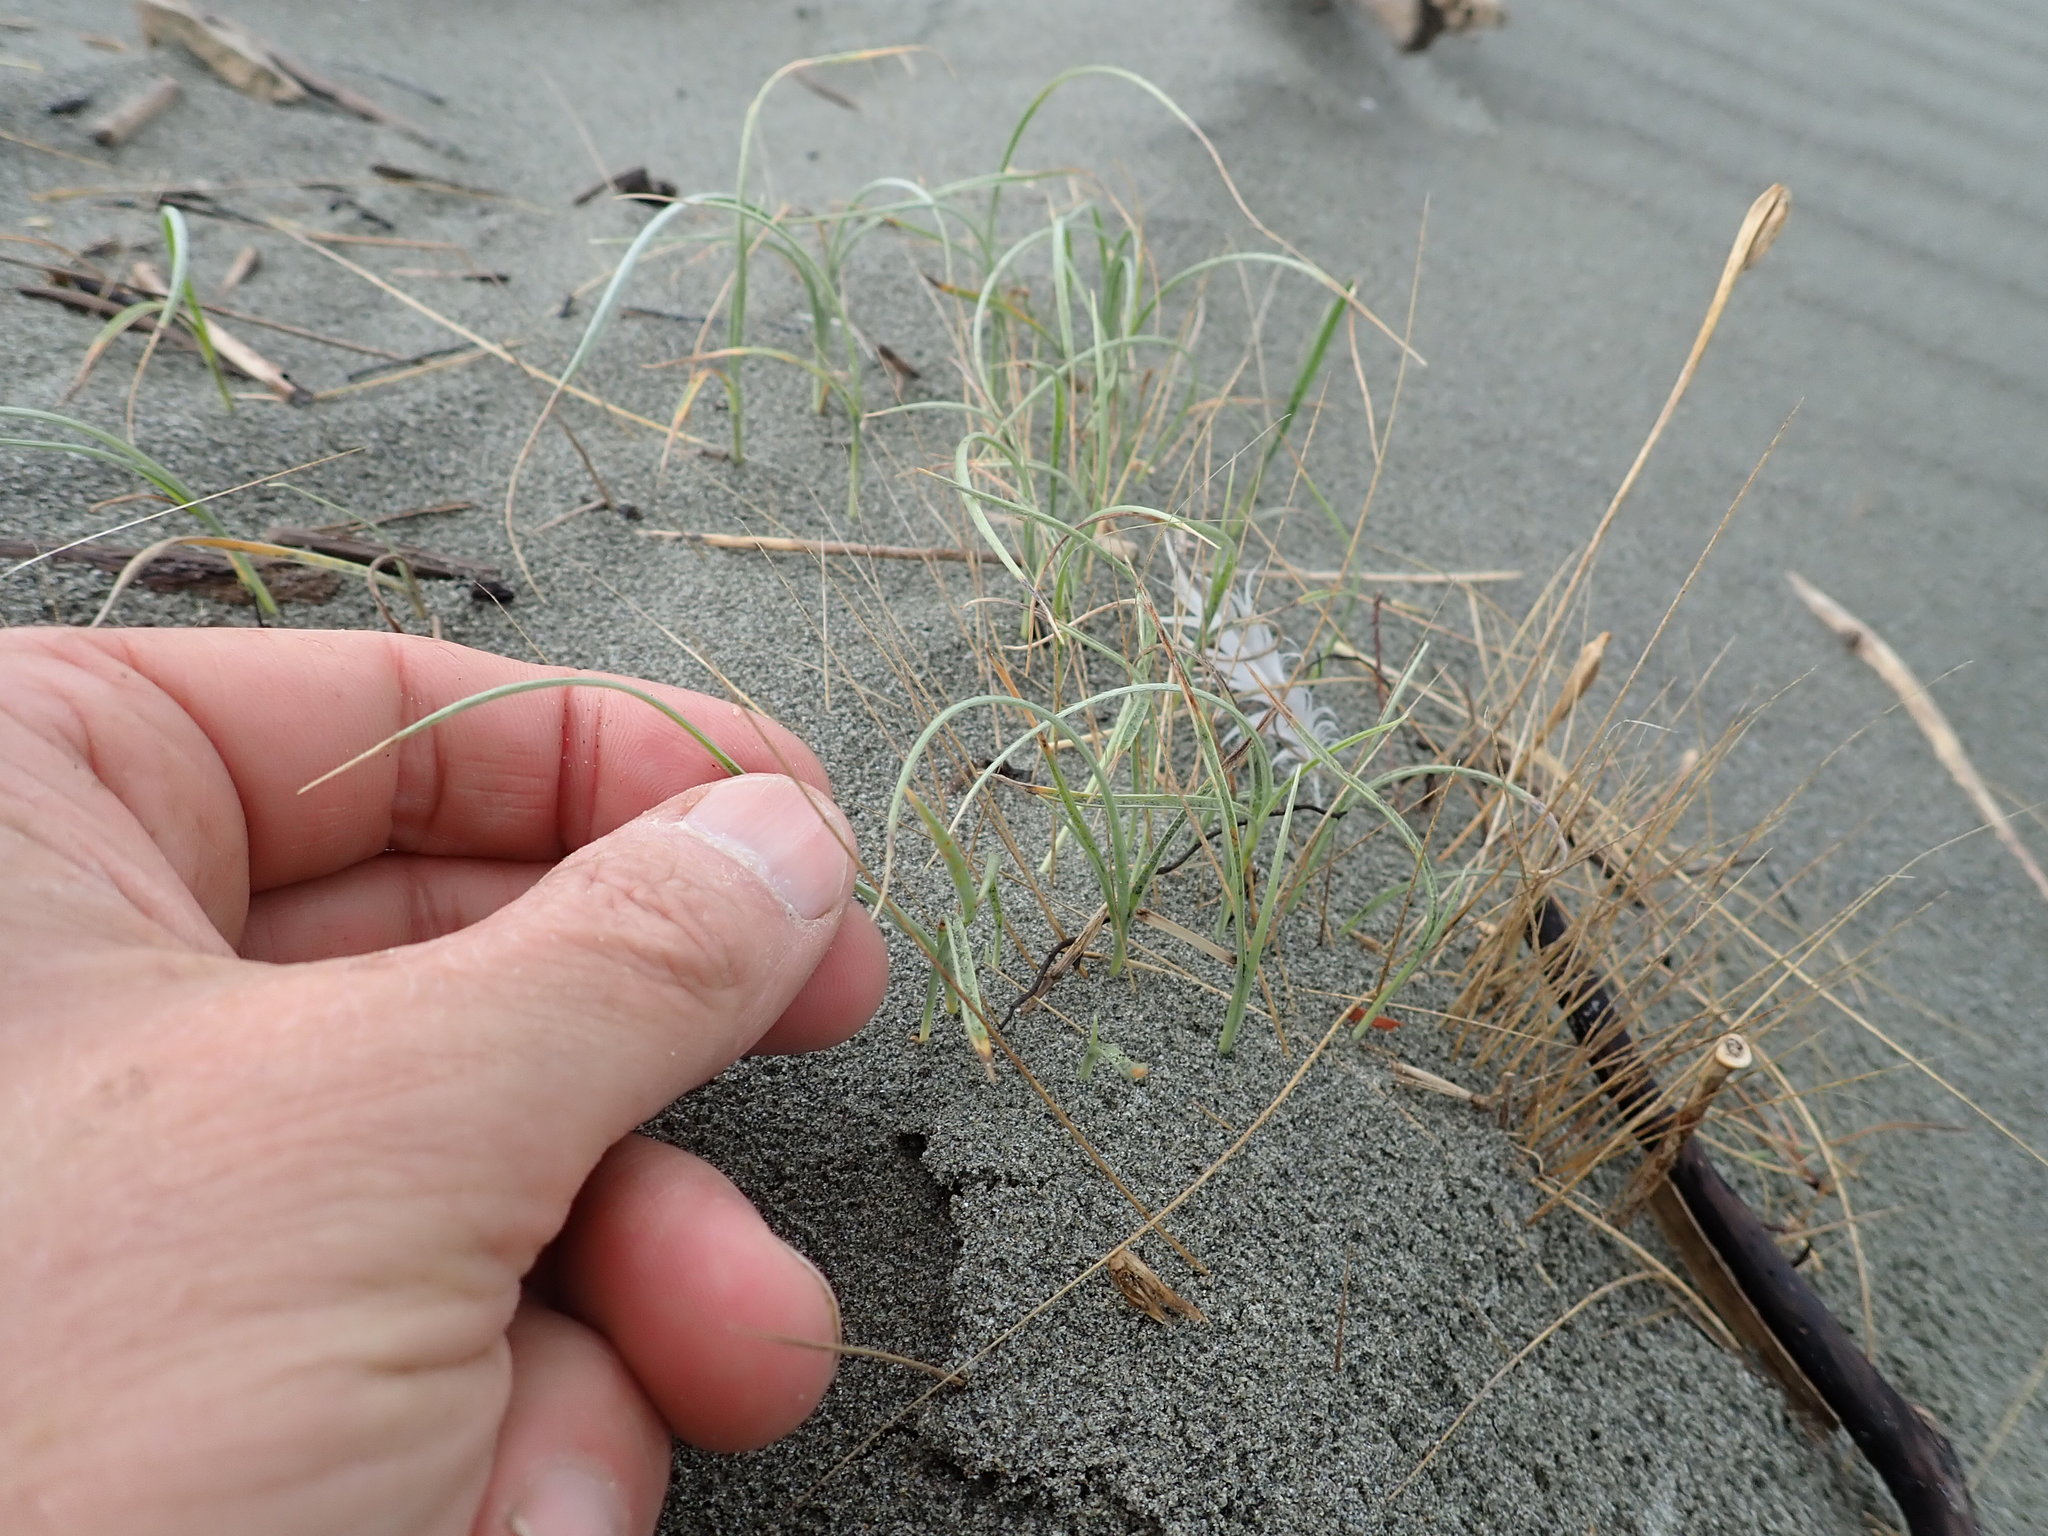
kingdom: Plantae
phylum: Tracheophyta
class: Liliopsida
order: Poales
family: Poaceae
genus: Spinifex
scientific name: Spinifex sericeus
